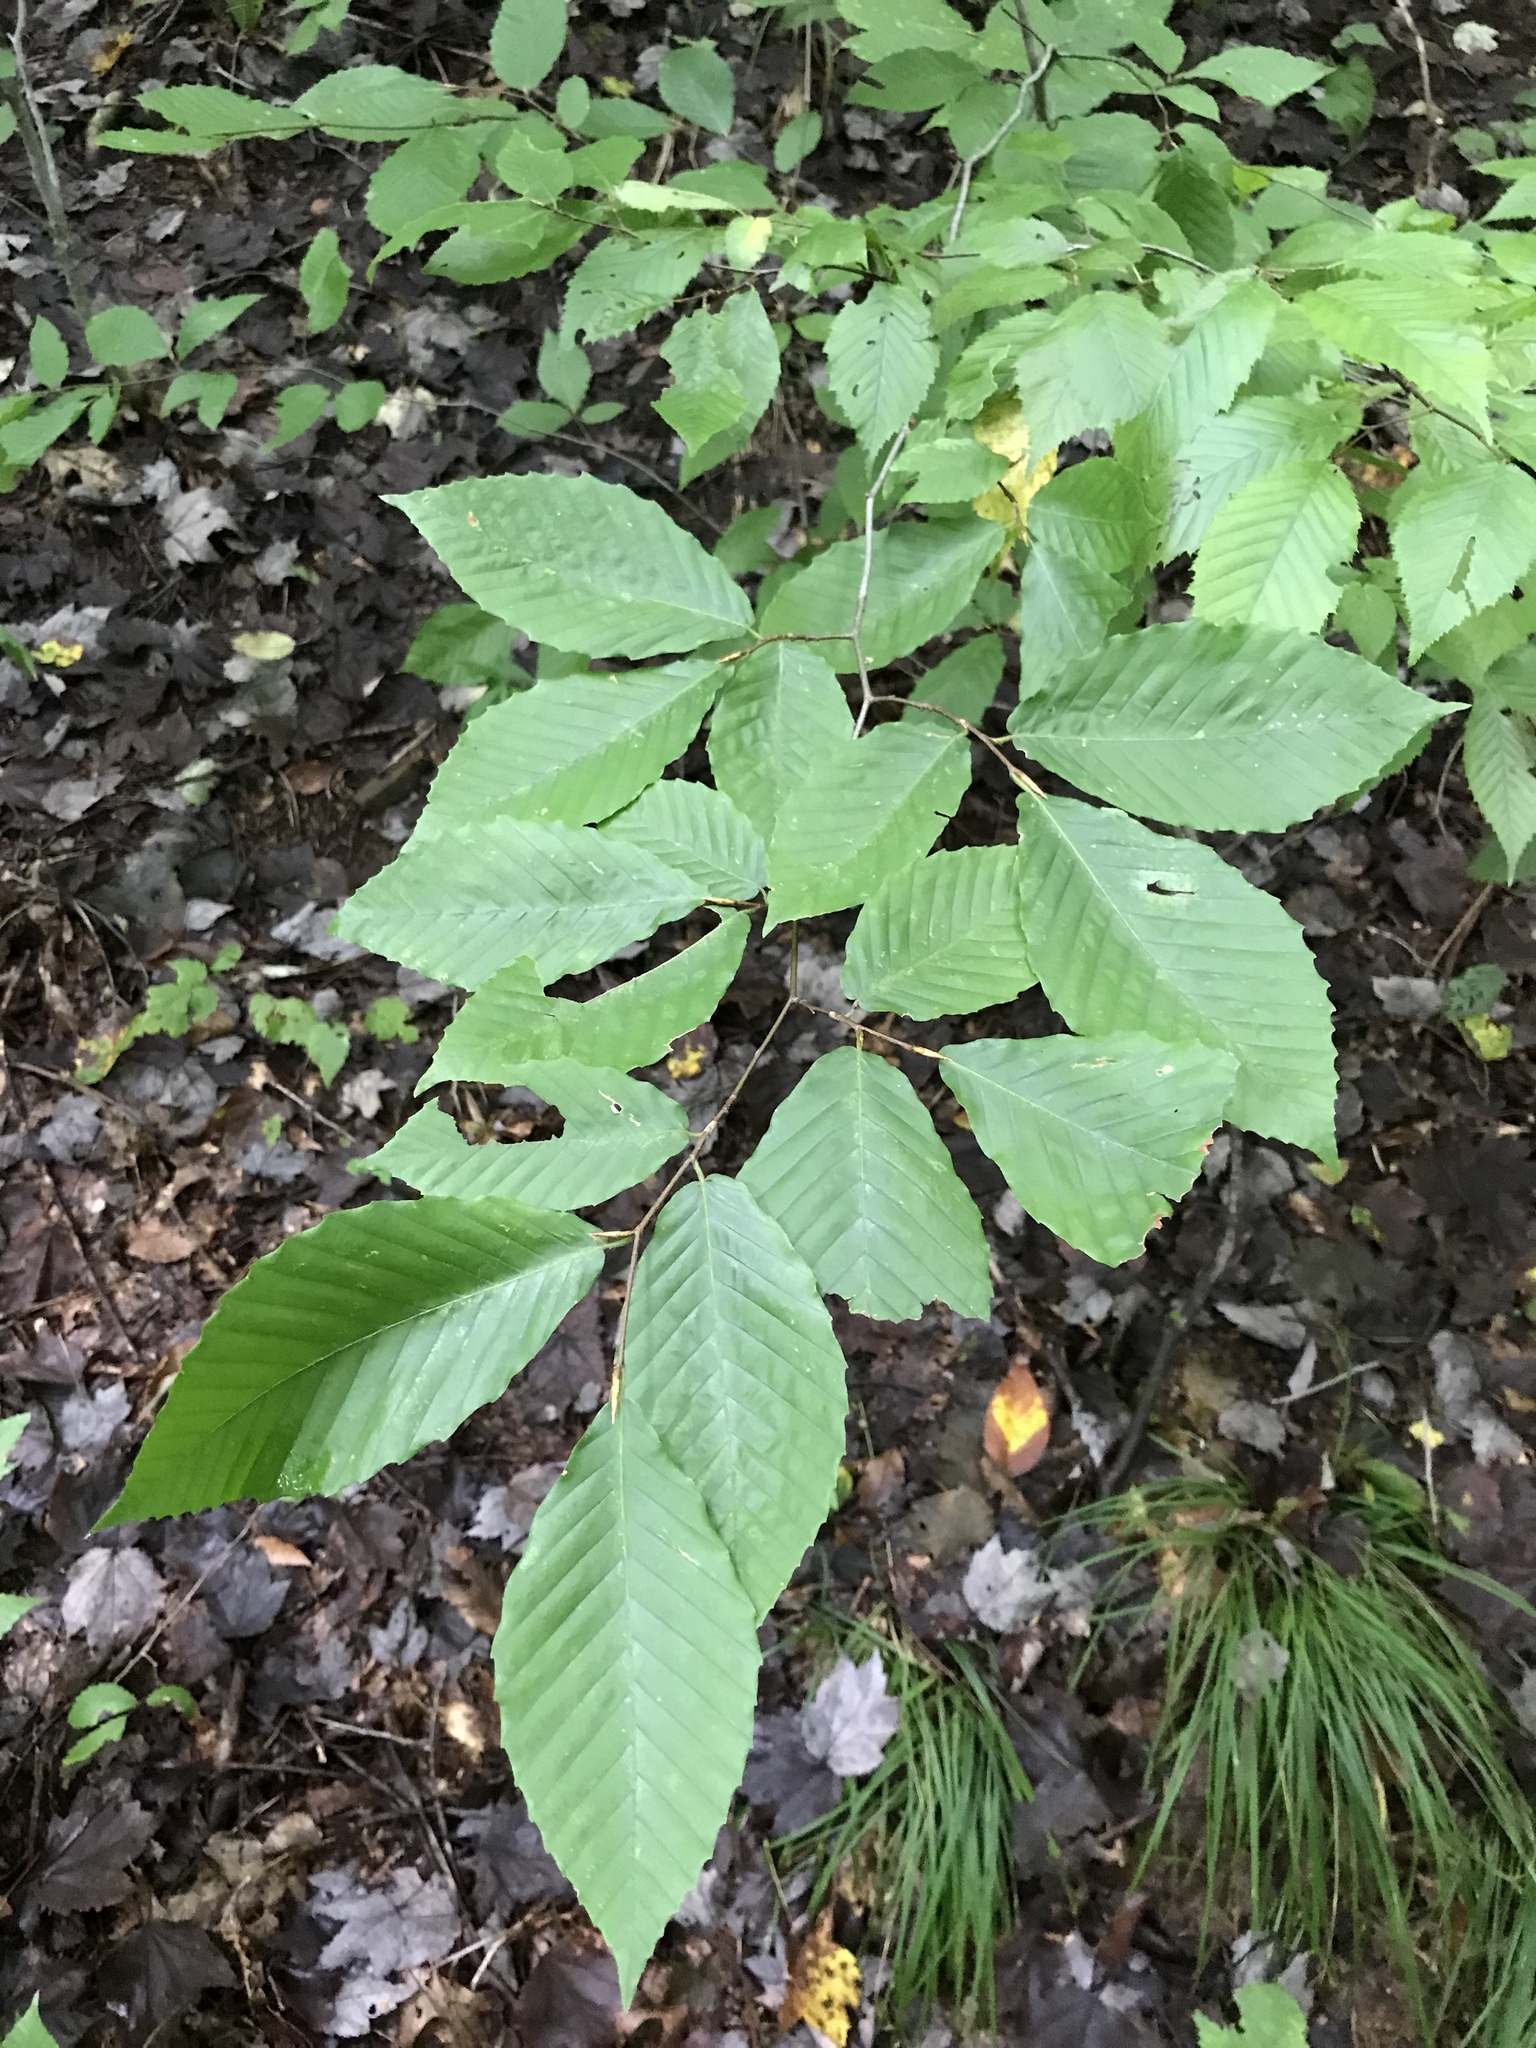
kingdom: Plantae
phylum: Tracheophyta
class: Magnoliopsida
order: Fagales
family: Fagaceae
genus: Fagus
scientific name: Fagus grandifolia
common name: American beech
